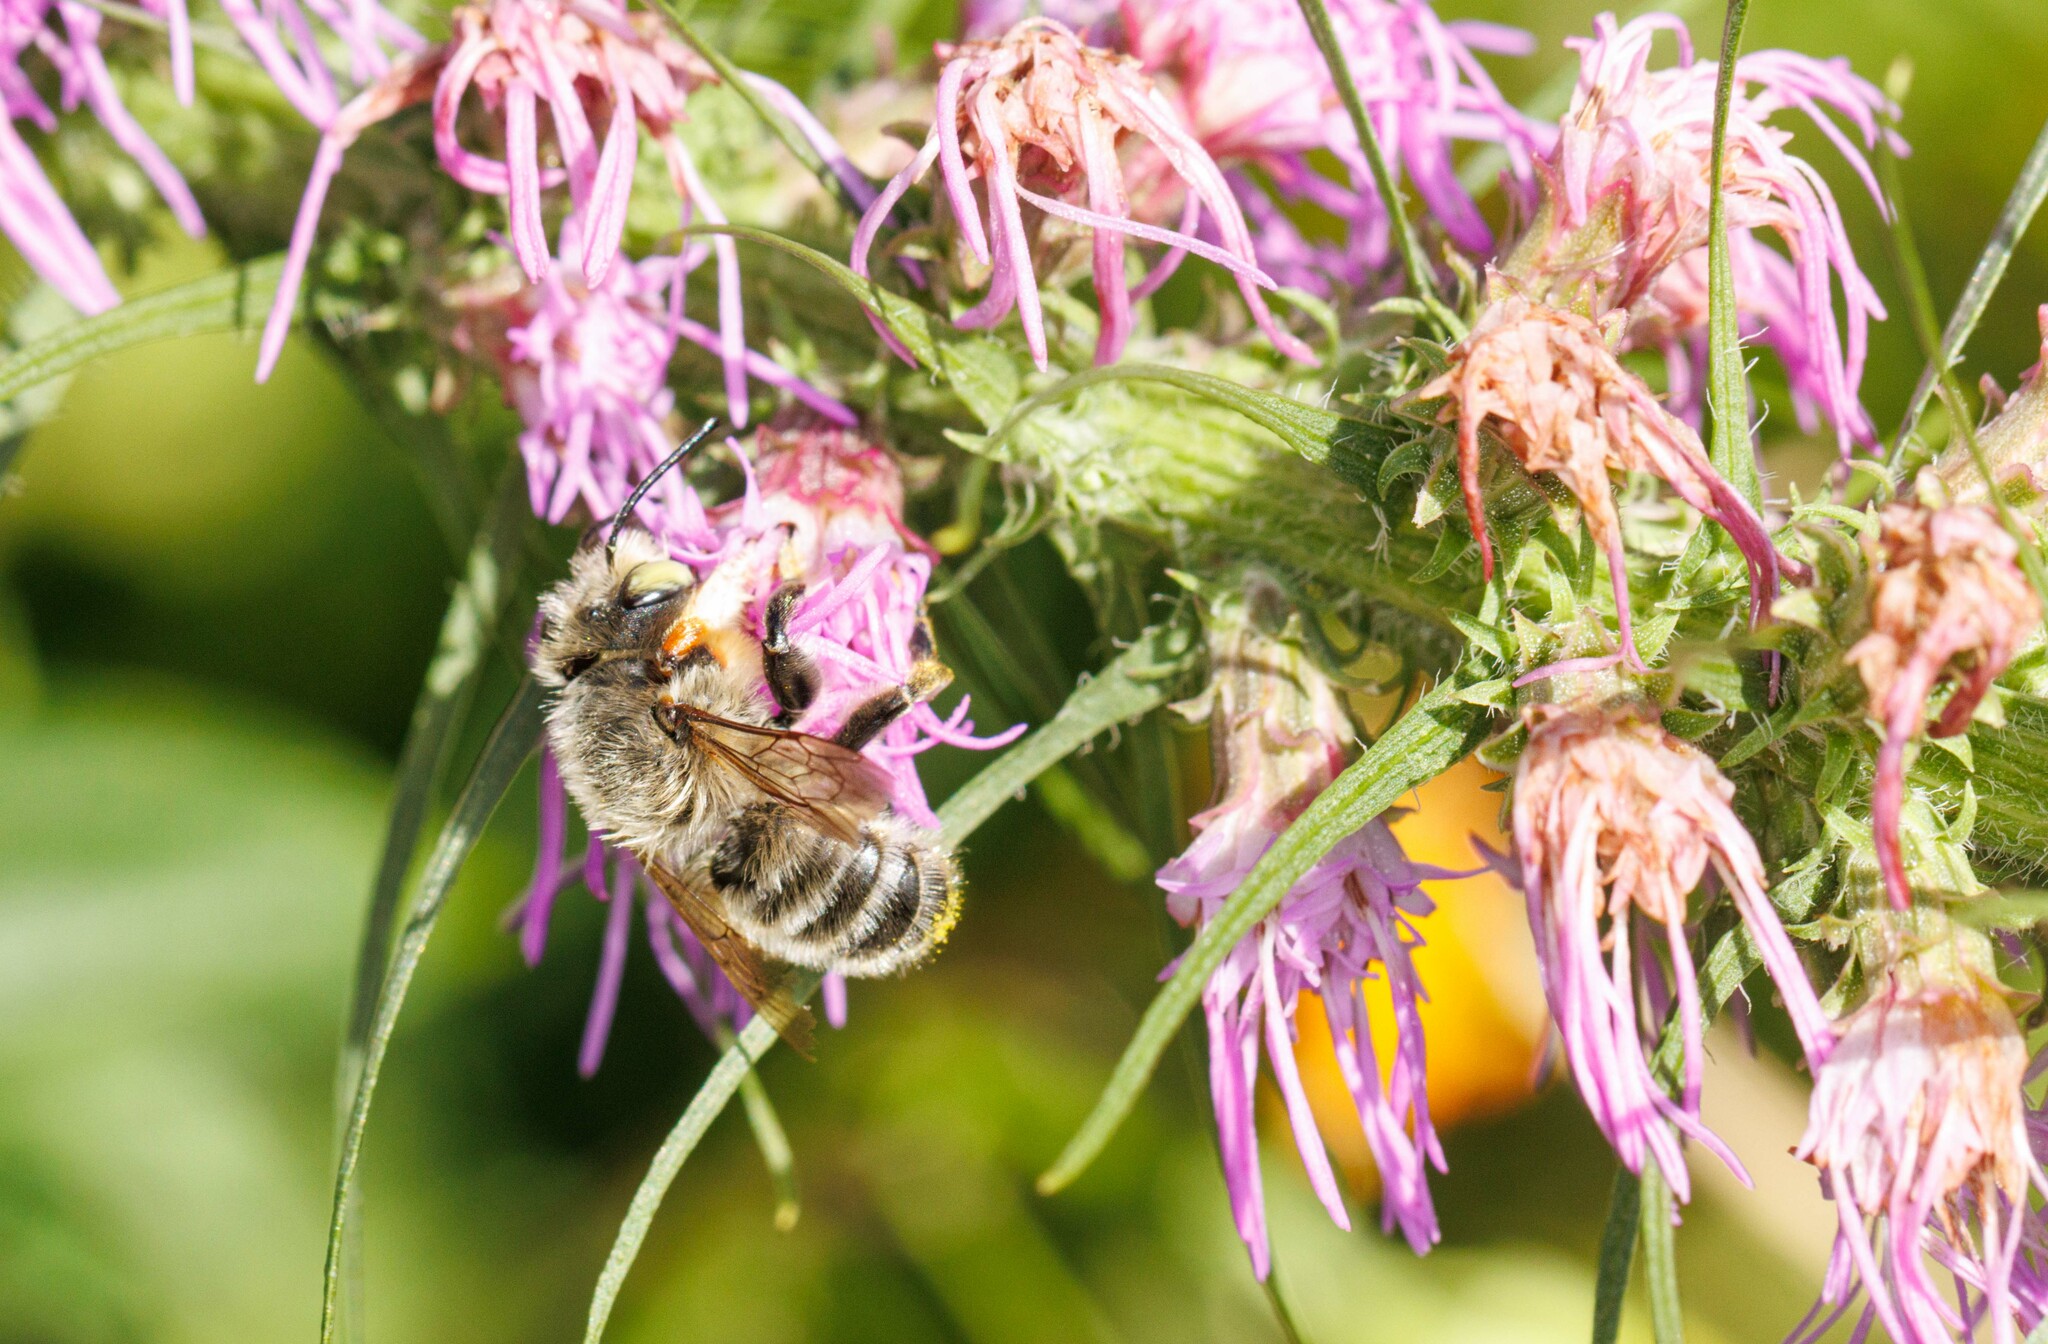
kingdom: Animalia
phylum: Arthropoda
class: Insecta
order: Hymenoptera
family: Megachilidae
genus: Megachile
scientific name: Megachile perihirta
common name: Western leafcutter
